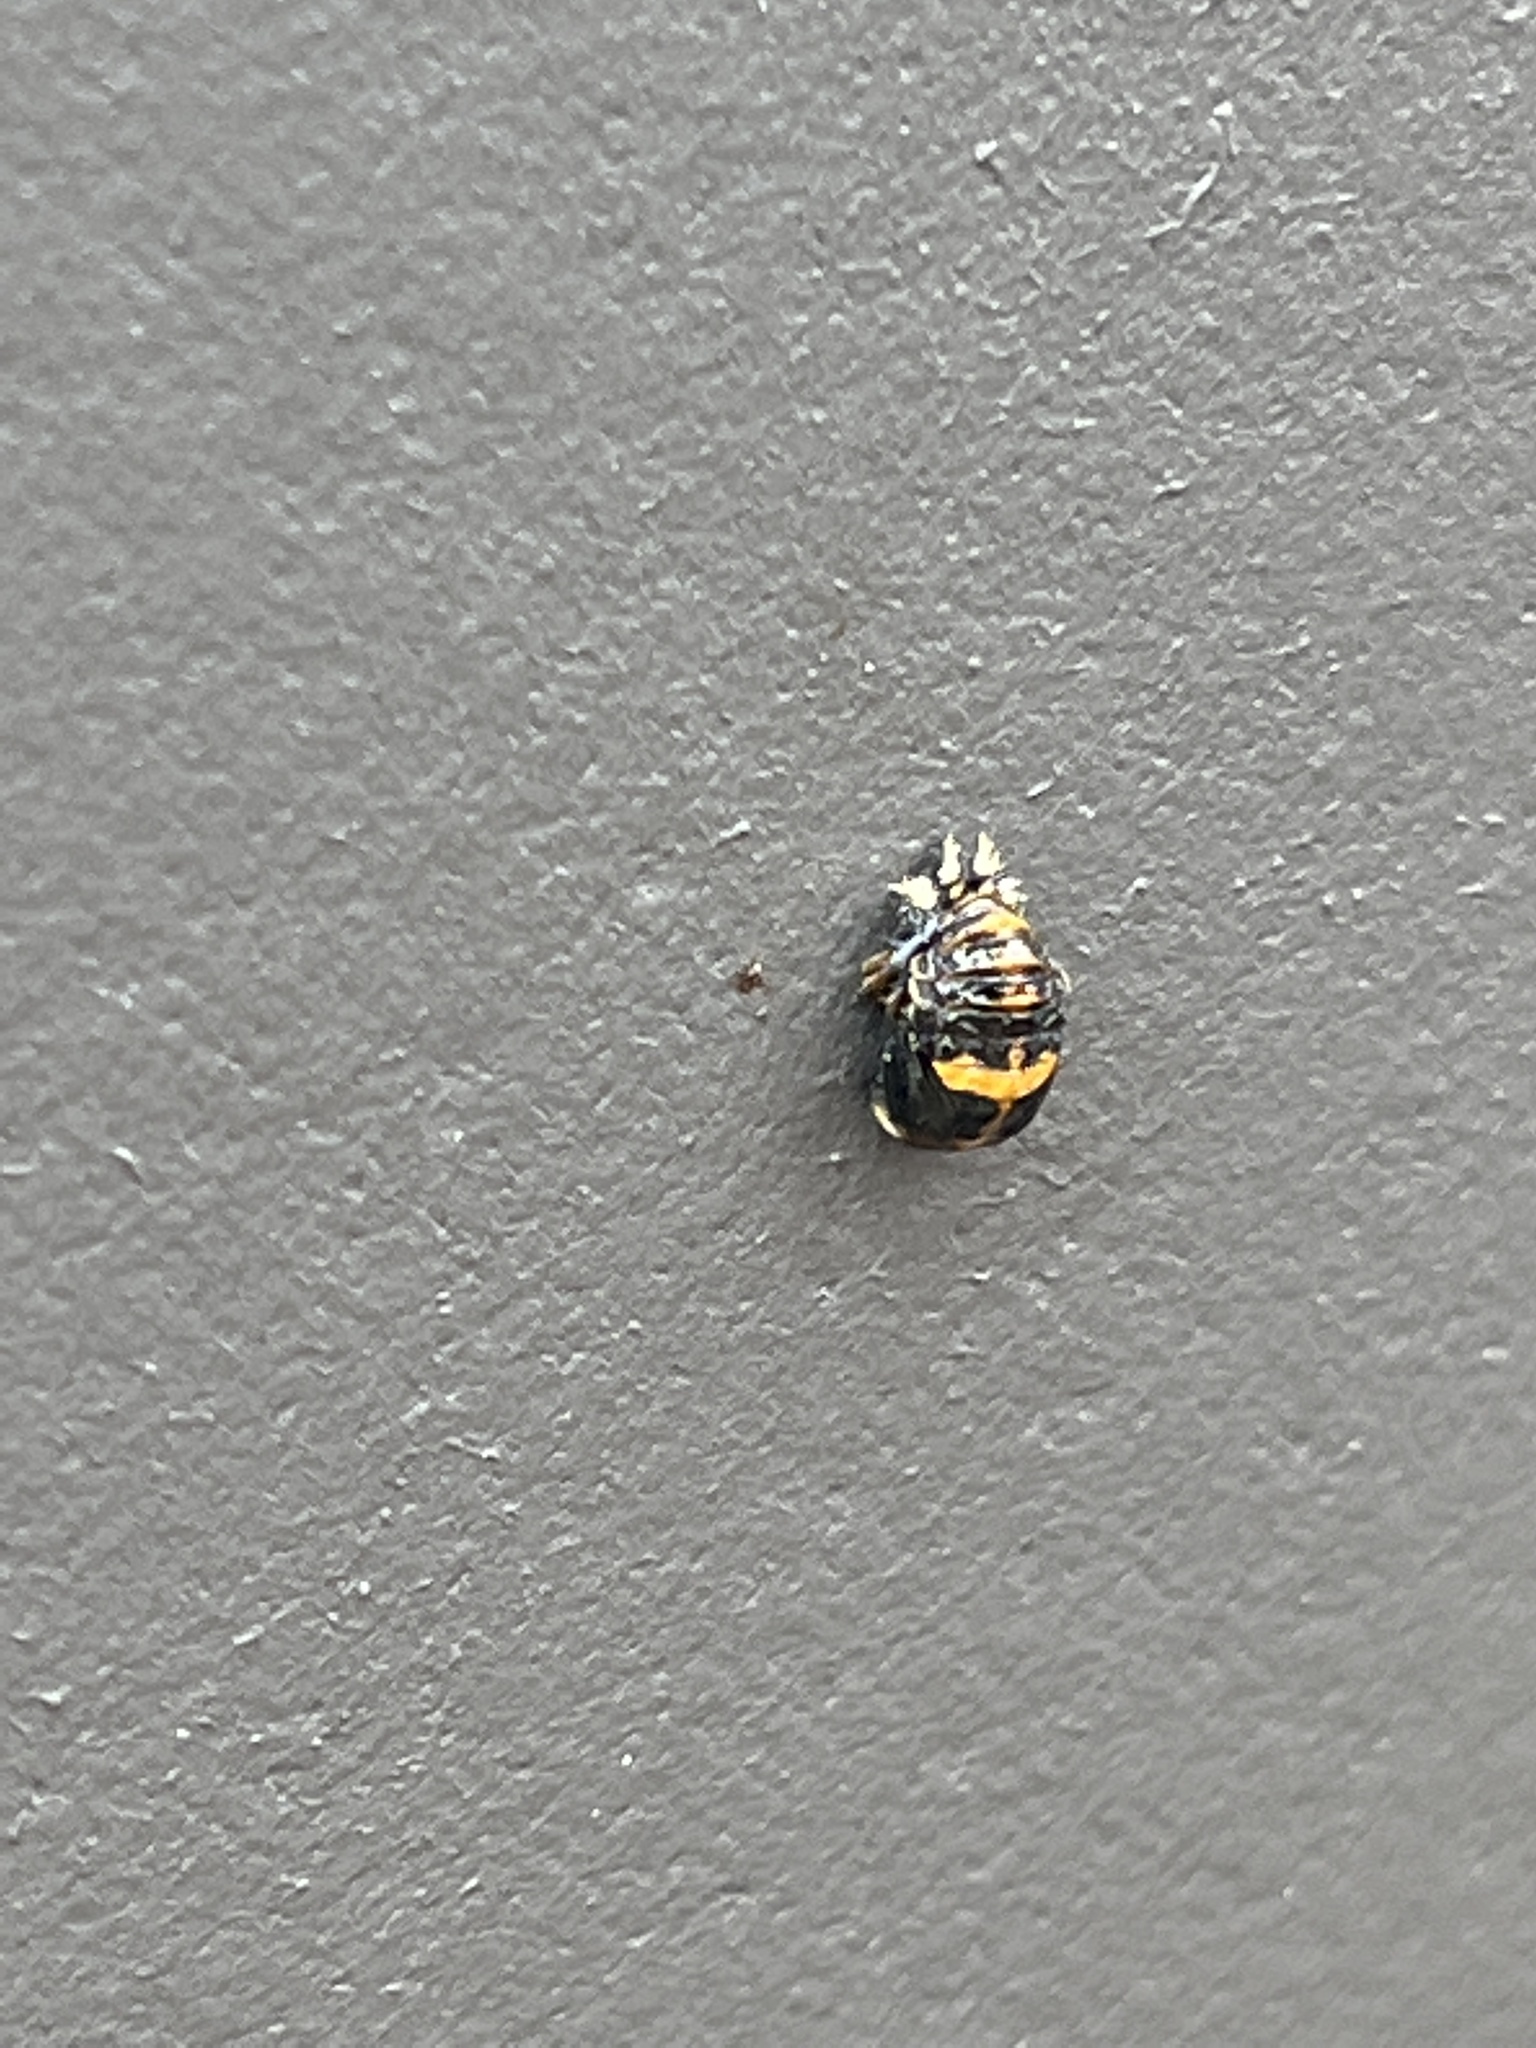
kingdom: Animalia
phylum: Arthropoda
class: Insecta
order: Coleoptera
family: Coccinellidae
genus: Harmonia
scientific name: Harmonia axyridis
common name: Harlequin ladybird
